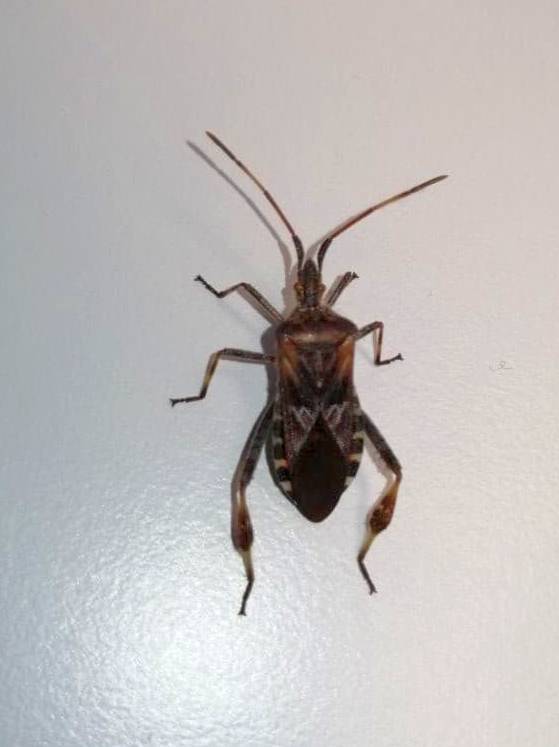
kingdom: Animalia
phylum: Arthropoda
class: Insecta
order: Hemiptera
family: Coreidae
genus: Leptoglossus
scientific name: Leptoglossus occidentalis
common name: Western conifer-seed bug
